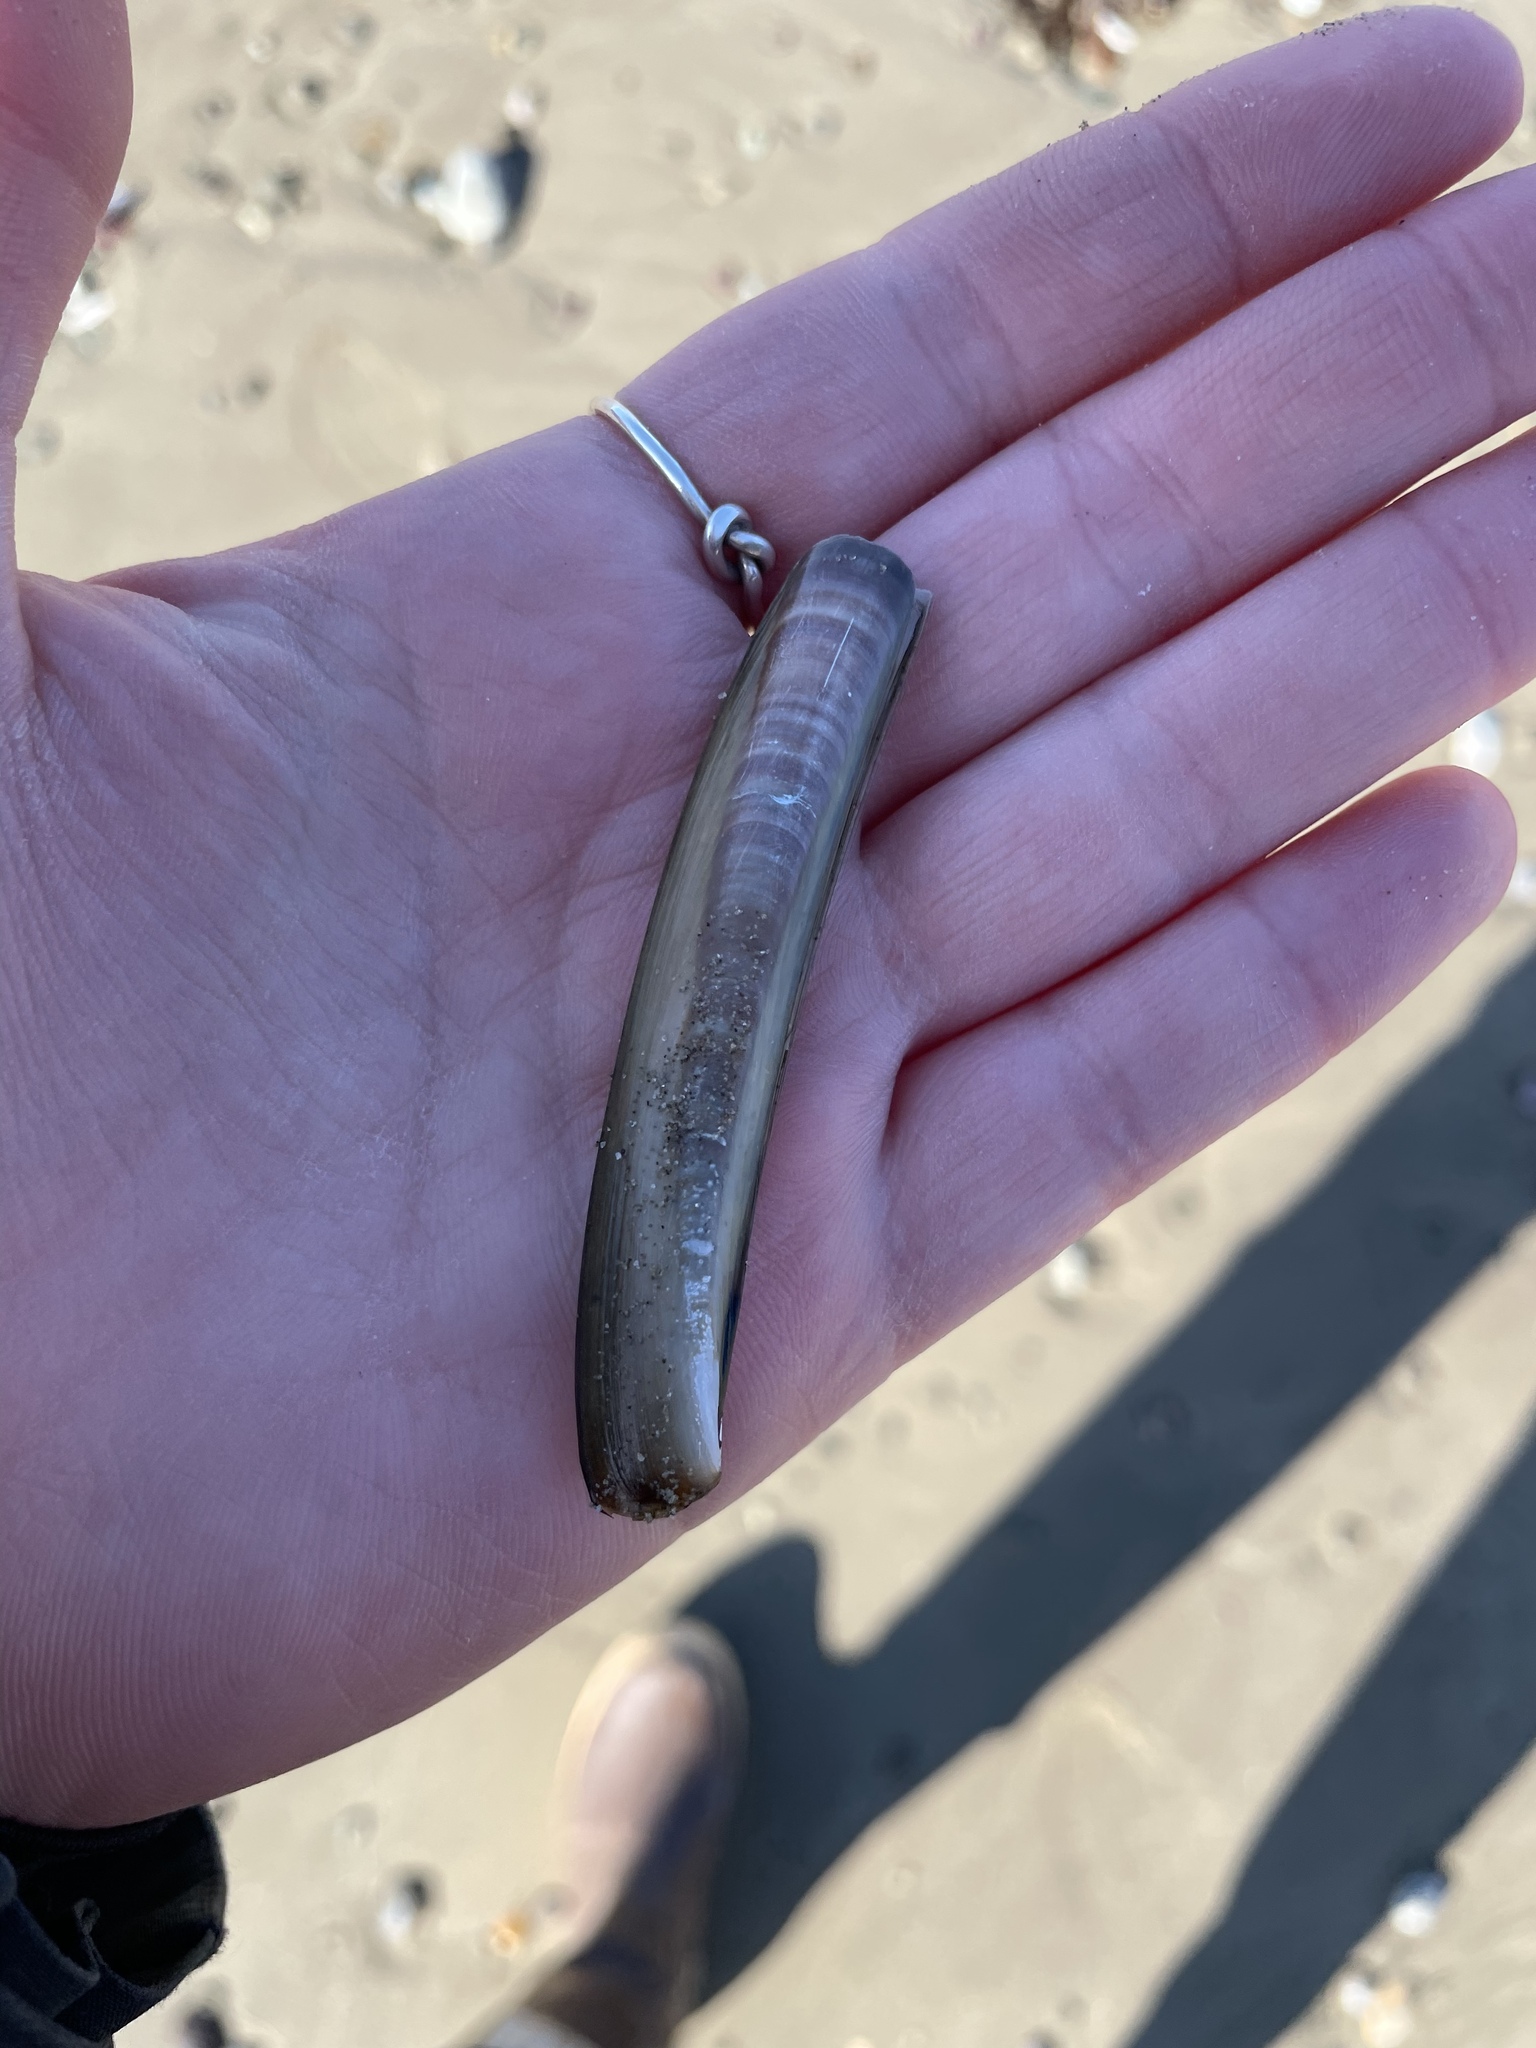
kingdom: Animalia
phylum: Mollusca
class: Bivalvia
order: Adapedonta
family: Pharidae
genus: Ensis
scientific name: Ensis leei
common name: American jack knife clam
